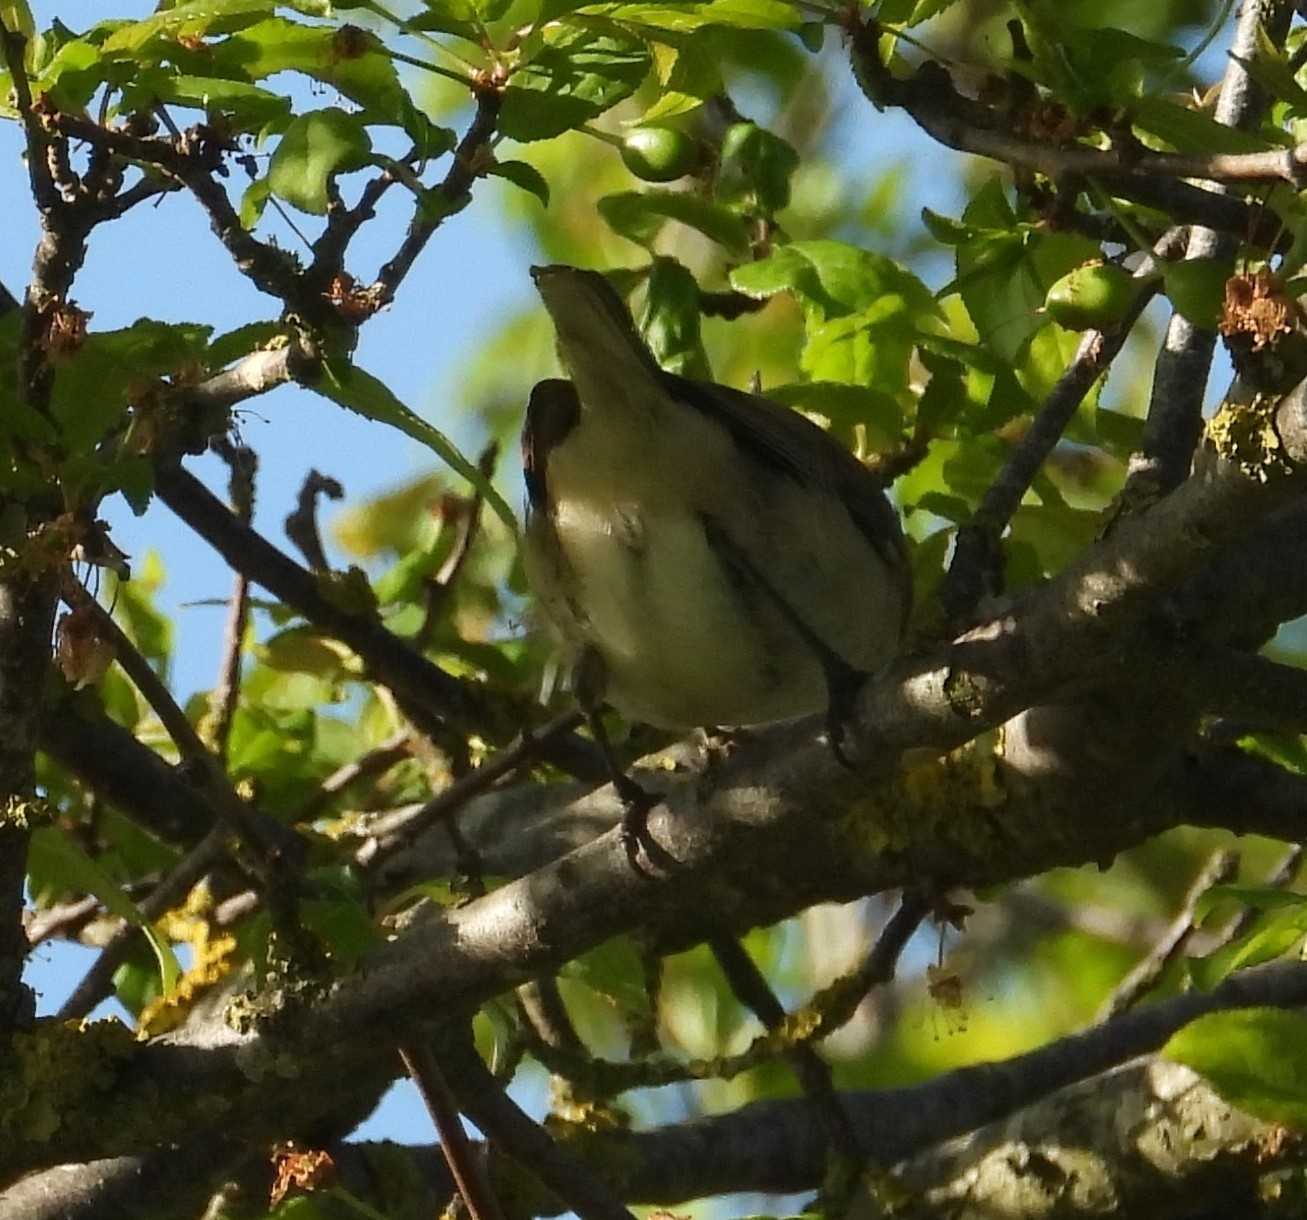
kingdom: Animalia
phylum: Chordata
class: Aves
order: Passeriformes
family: Sylviidae
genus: Sylvia
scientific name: Sylvia curruca
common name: Lesser whitethroat
